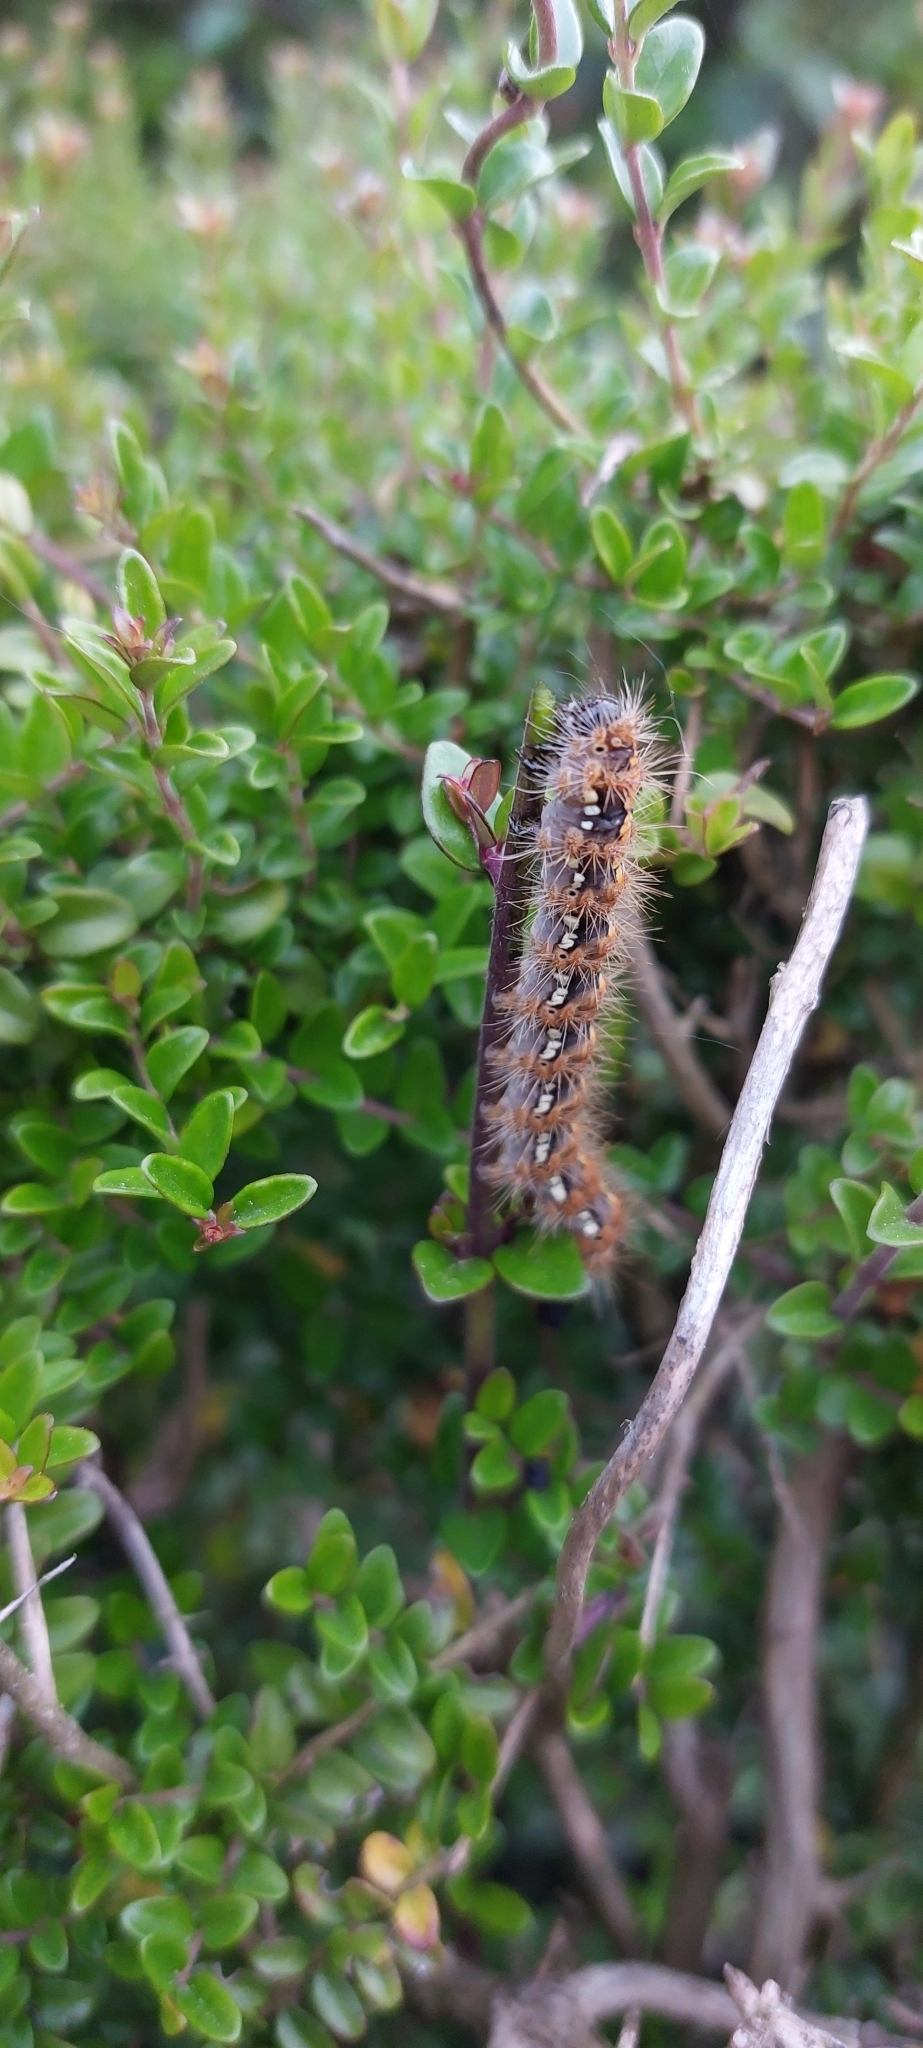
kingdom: Animalia
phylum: Arthropoda
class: Insecta
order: Lepidoptera
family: Erebidae
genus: Euplagia
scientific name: Euplagia quadripunctaria
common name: Jersey tiger
